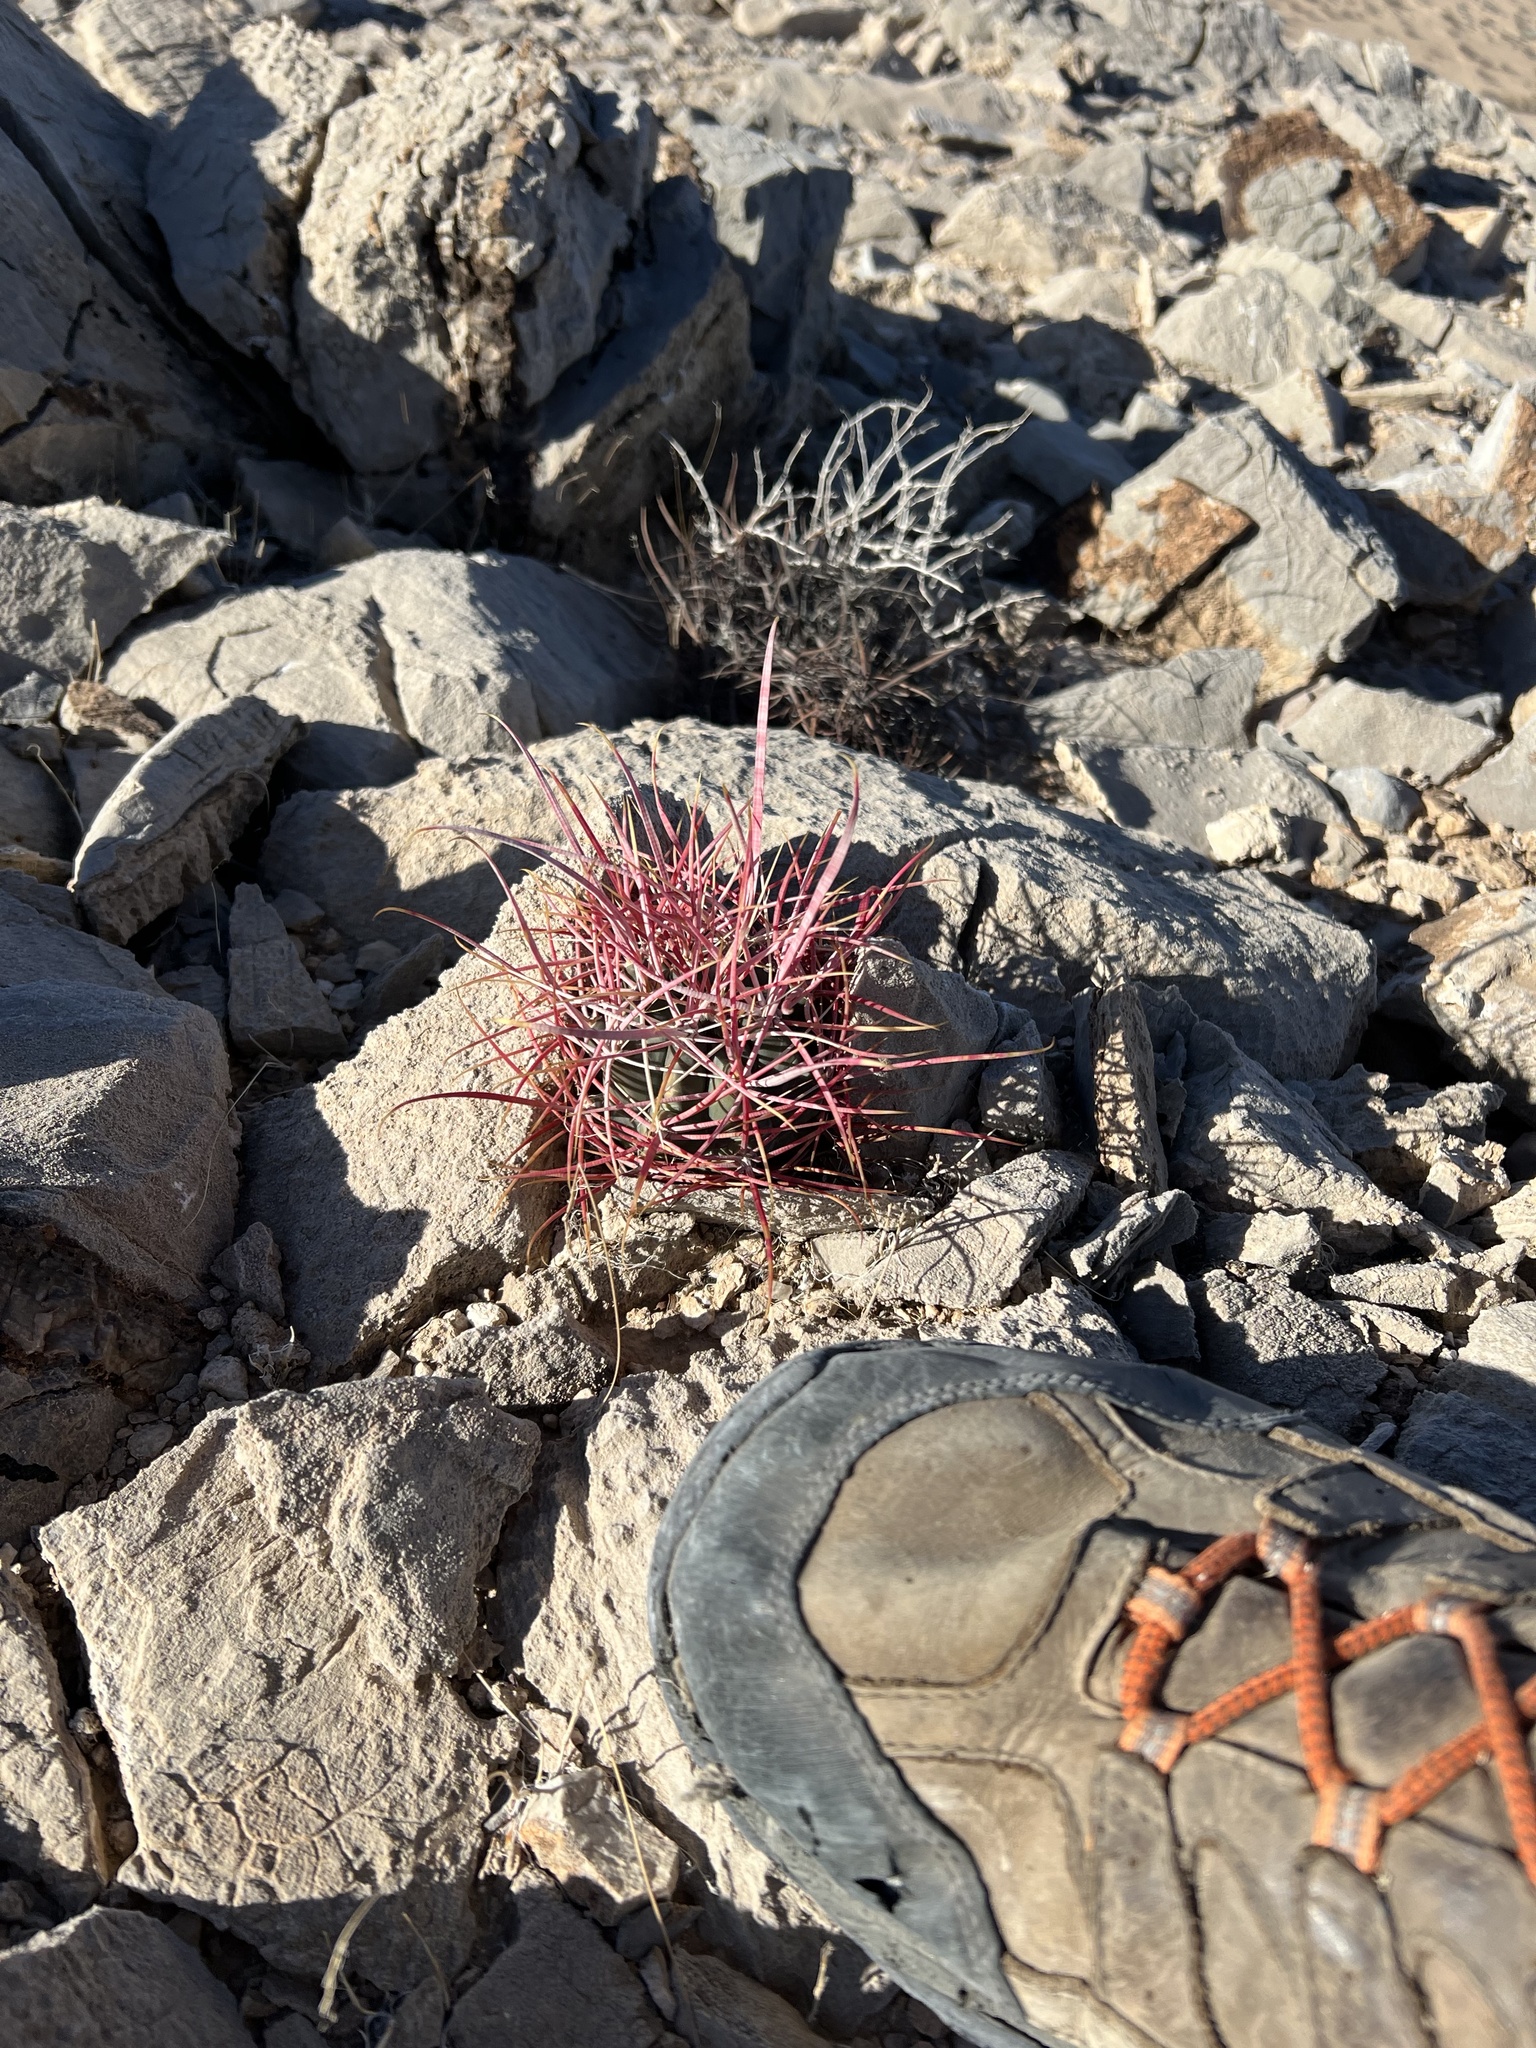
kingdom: Plantae
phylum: Tracheophyta
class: Magnoliopsida
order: Caryophyllales
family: Cactaceae
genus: Ferocactus
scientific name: Ferocactus cylindraceus
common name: California barrel cactus
